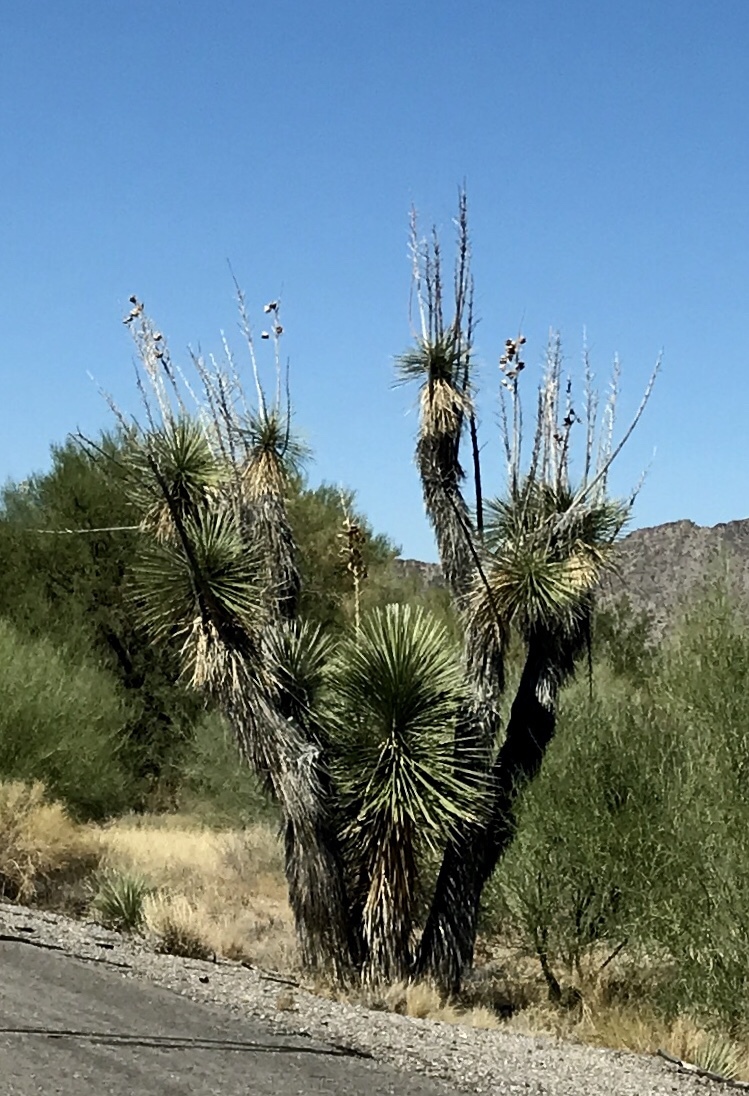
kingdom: Plantae
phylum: Tracheophyta
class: Liliopsida
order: Asparagales
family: Asparagaceae
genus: Yucca
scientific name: Yucca elata
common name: Palmella
